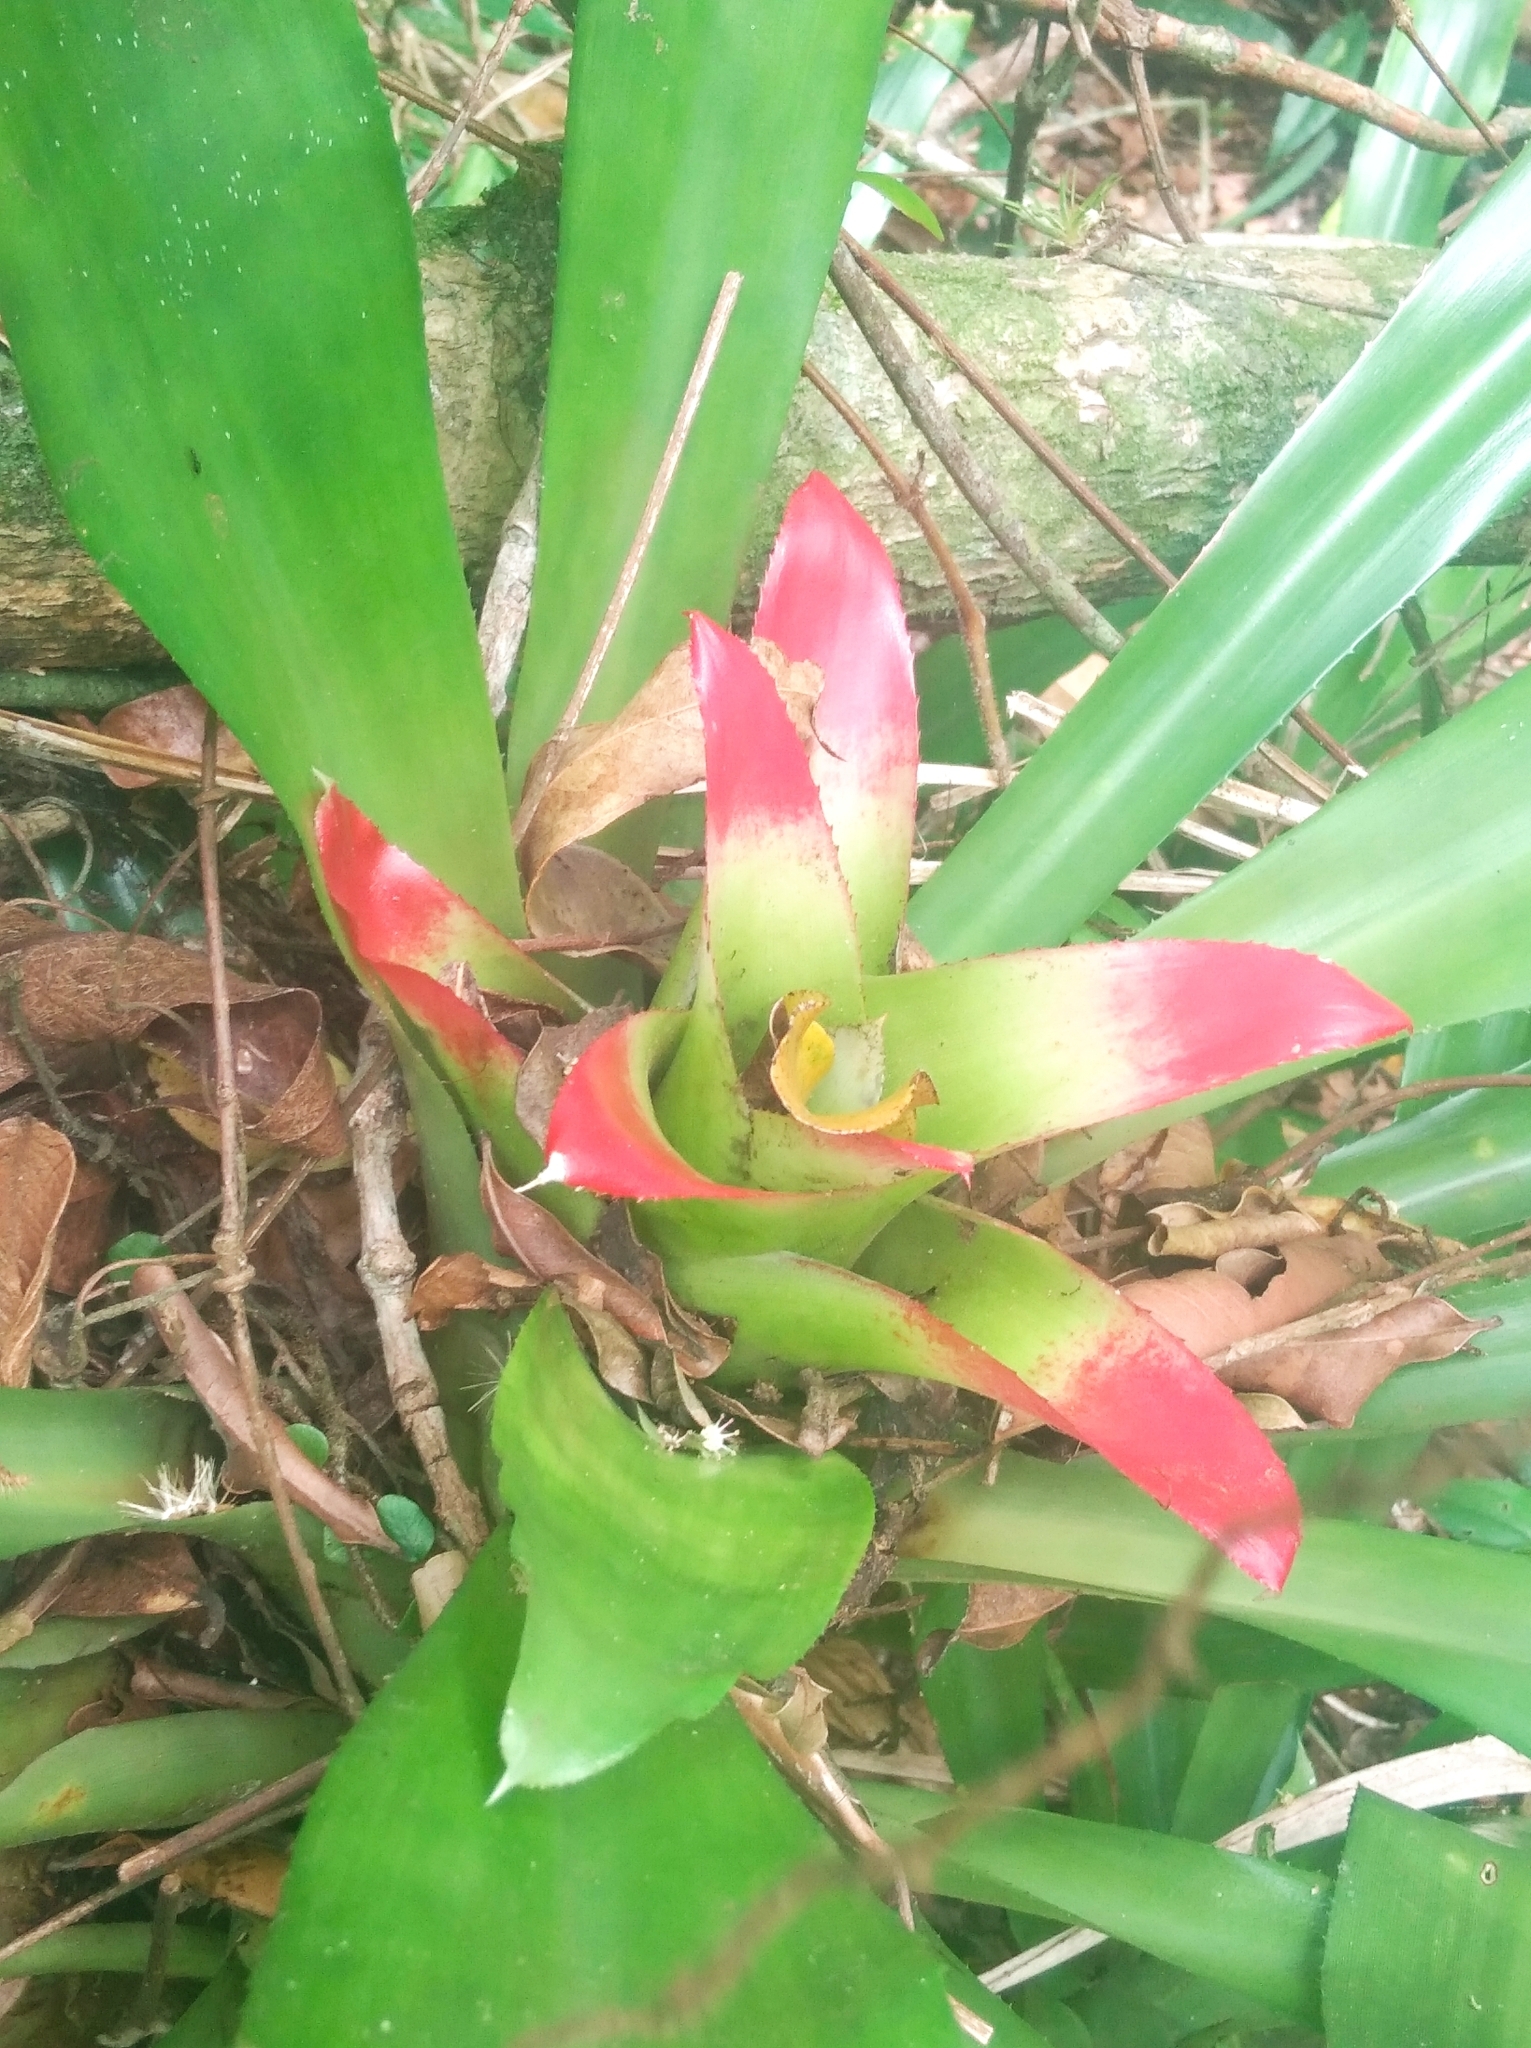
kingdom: Plantae
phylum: Tracheophyta
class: Liliopsida
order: Poales
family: Bromeliaceae
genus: Nidularium
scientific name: Nidularium innocentii
